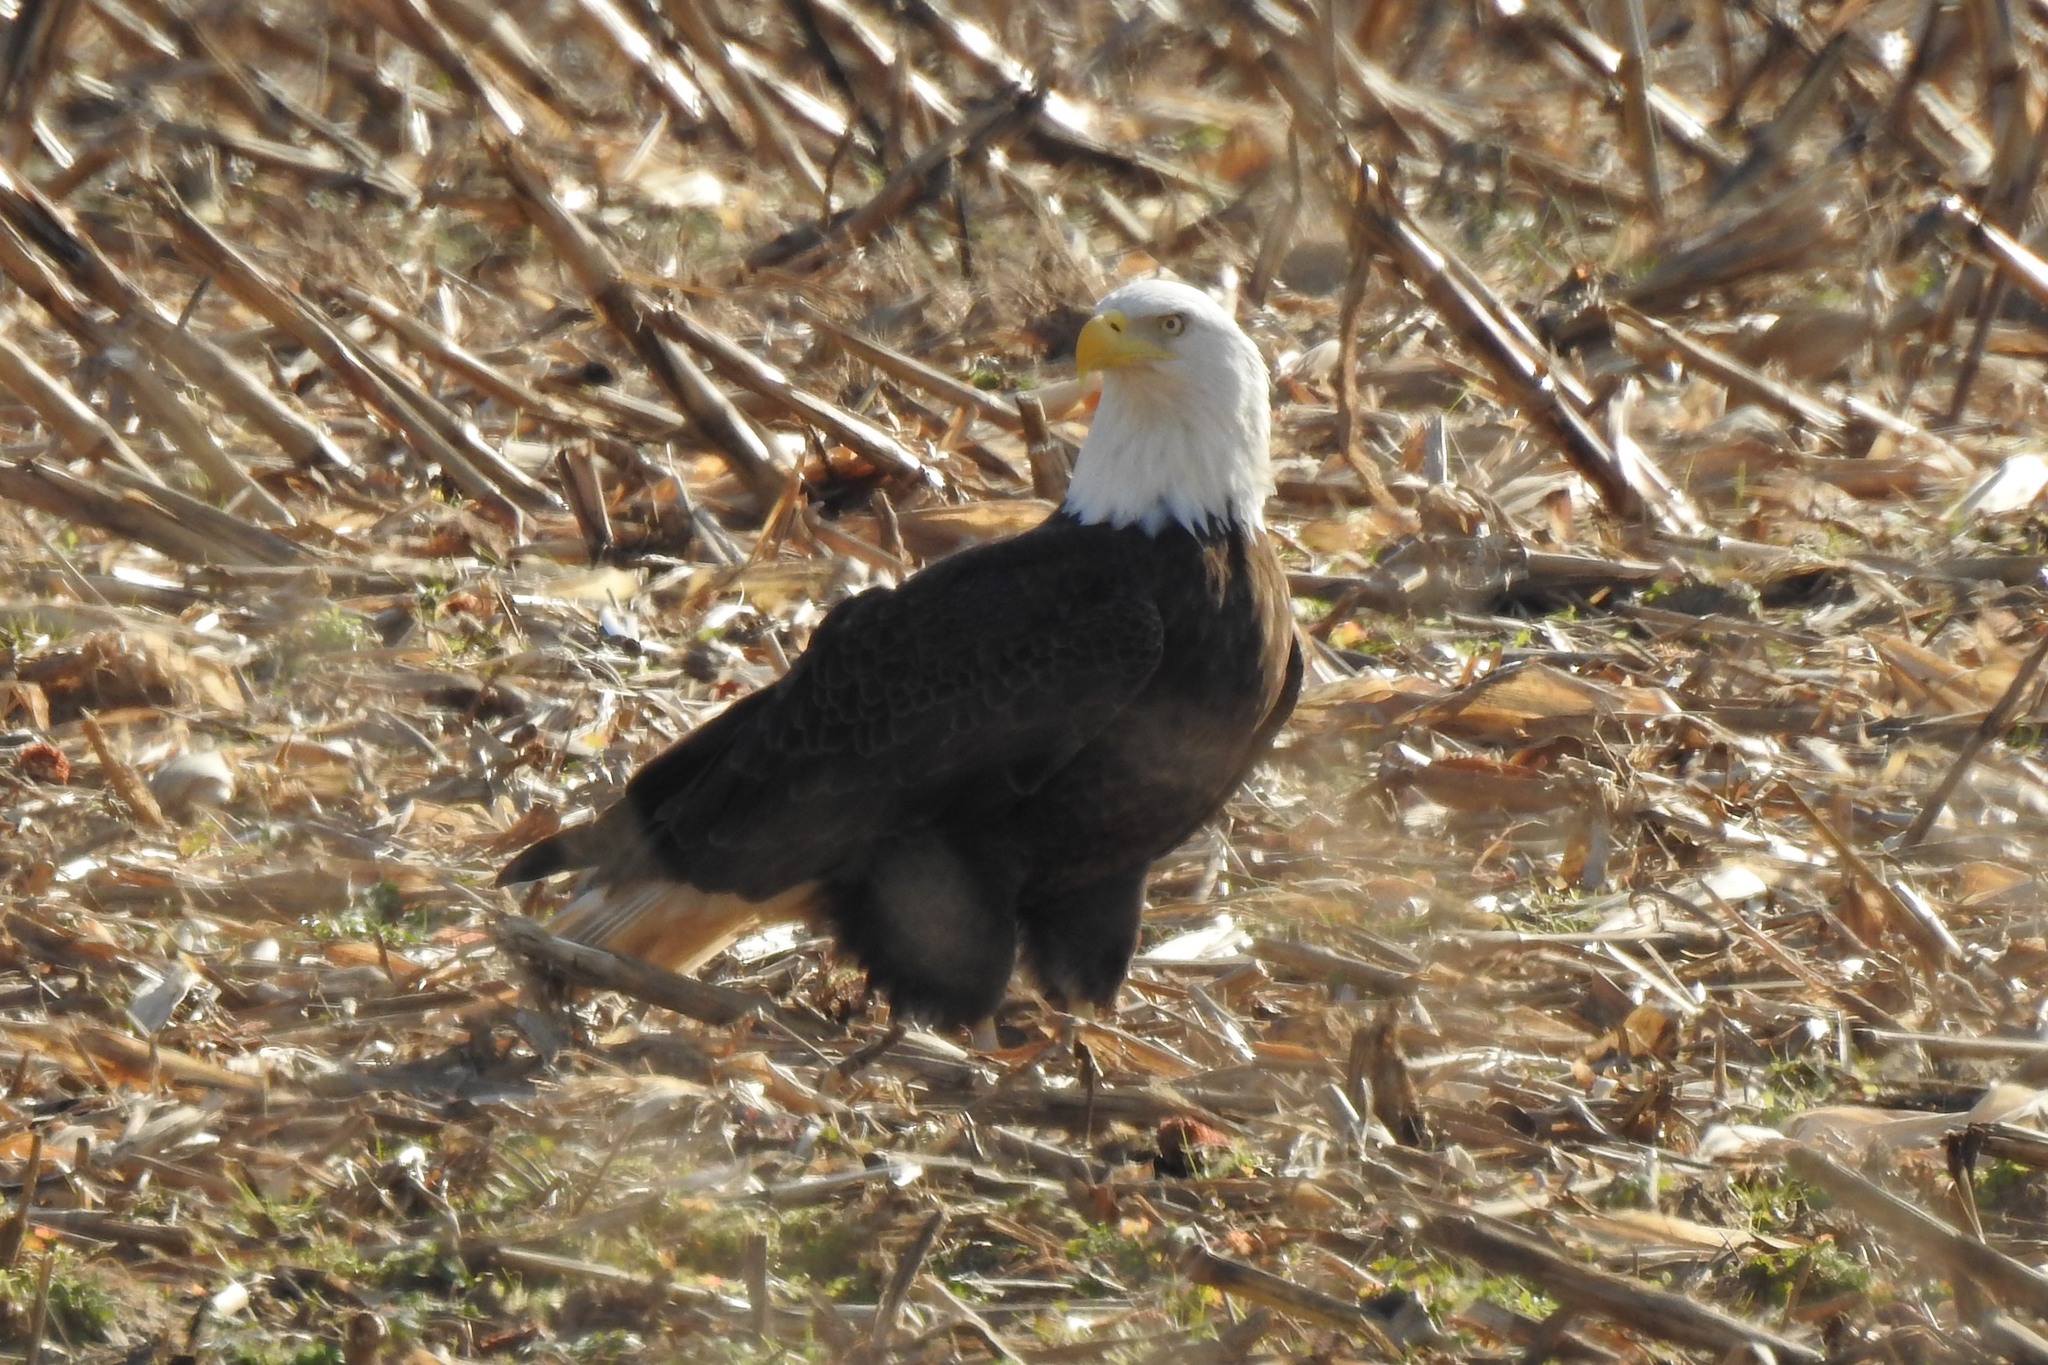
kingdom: Animalia
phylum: Chordata
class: Aves
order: Accipitriformes
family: Accipitridae
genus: Haliaeetus
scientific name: Haliaeetus leucocephalus
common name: Bald eagle
